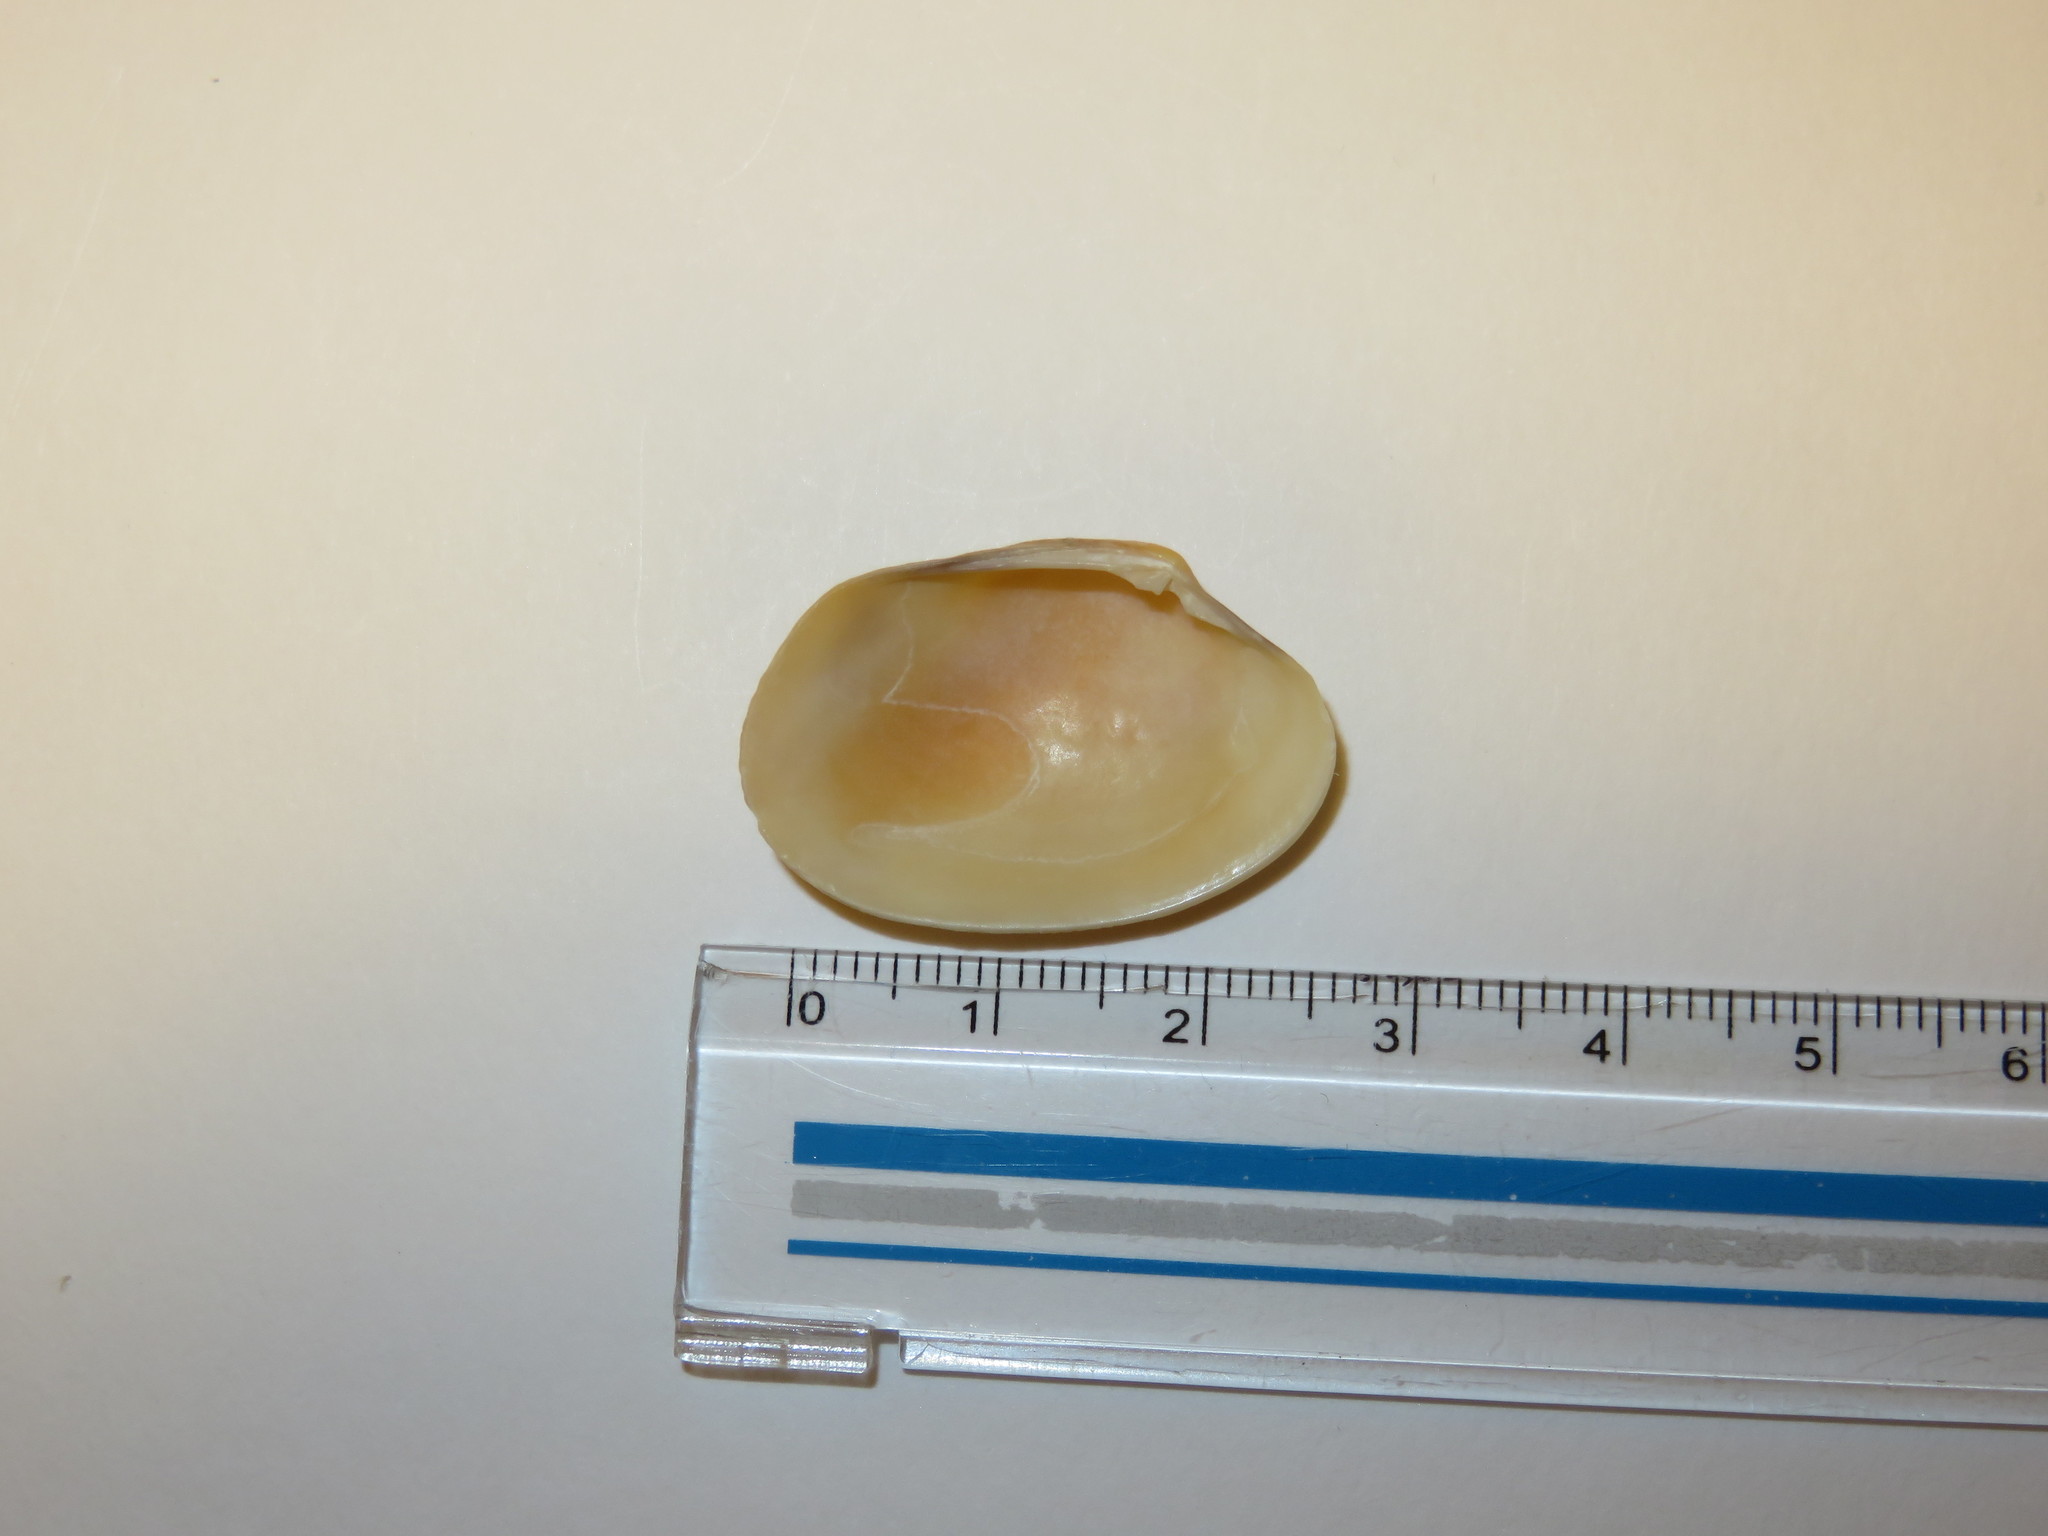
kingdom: Animalia
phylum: Mollusca
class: Bivalvia
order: Venerida
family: Veneridae
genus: Ruditapes
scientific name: Ruditapes philippinarum
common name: Manila clam
